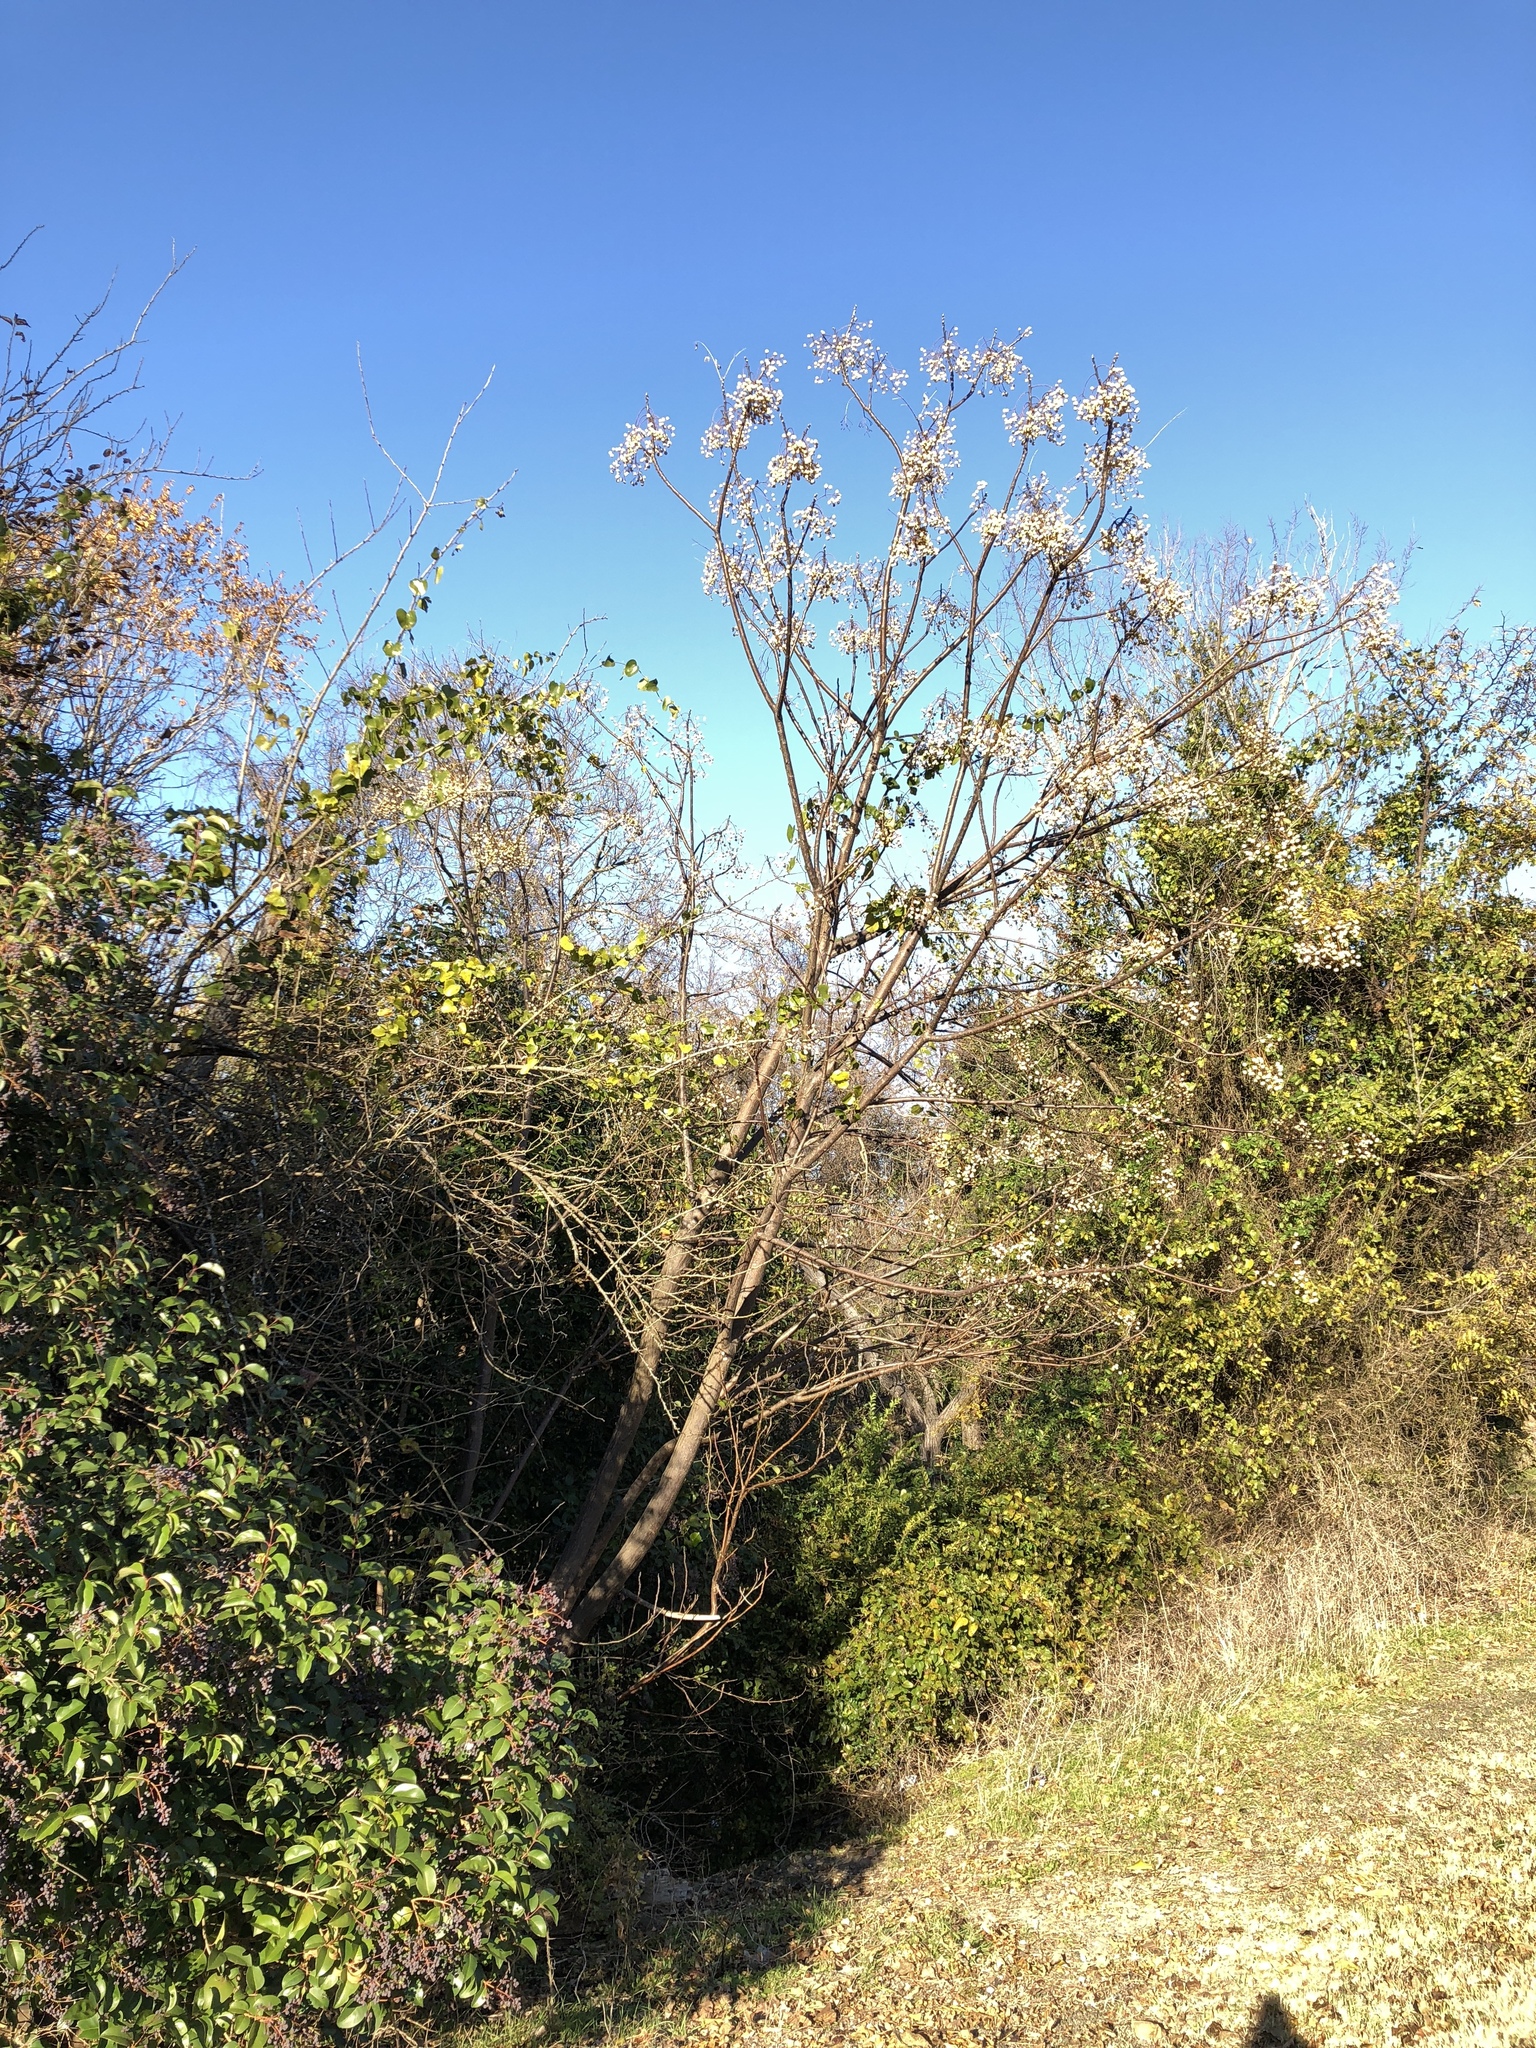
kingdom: Plantae
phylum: Tracheophyta
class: Magnoliopsida
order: Sapindales
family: Meliaceae
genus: Melia
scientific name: Melia azedarach
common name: Chinaberrytree
